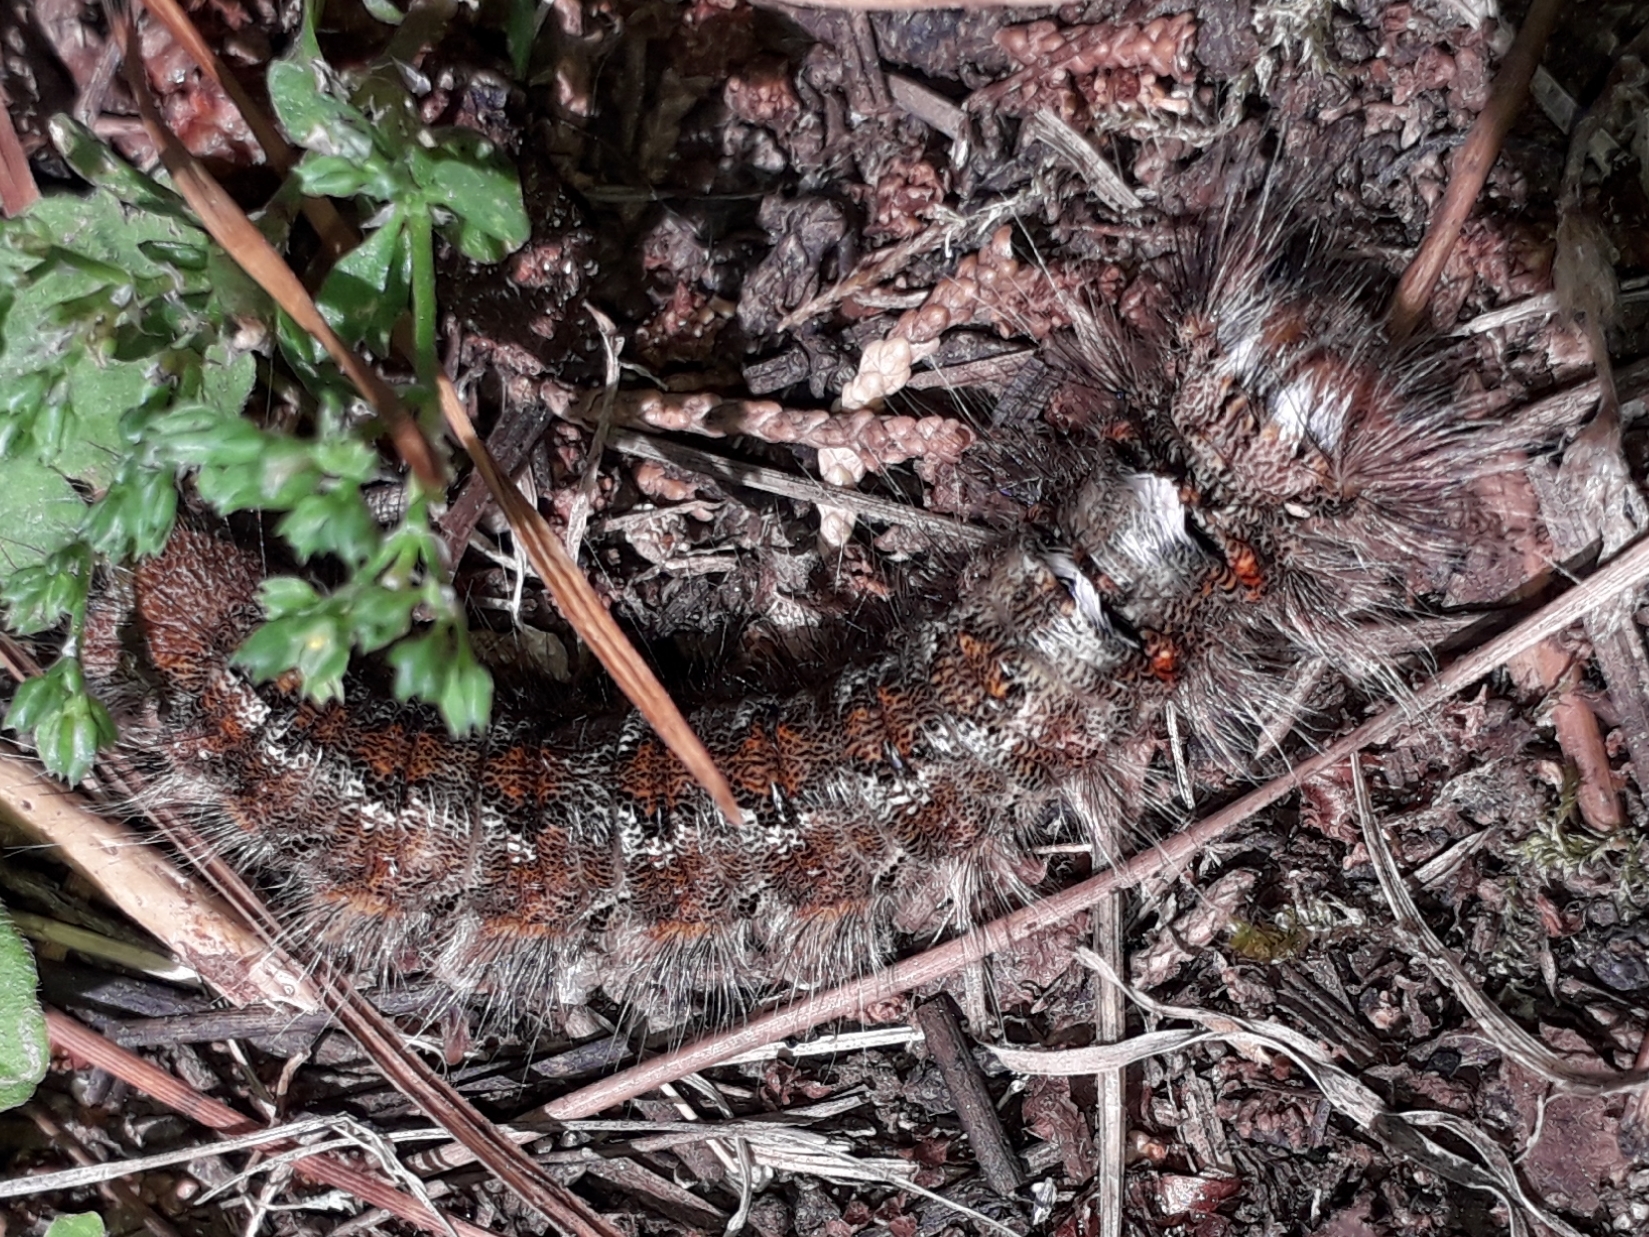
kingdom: Animalia
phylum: Arthropoda
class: Insecta
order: Lepidoptera
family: Lasiocampidae
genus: Dendrolimus
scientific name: Dendrolimus pini
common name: Pine-tree lappet
